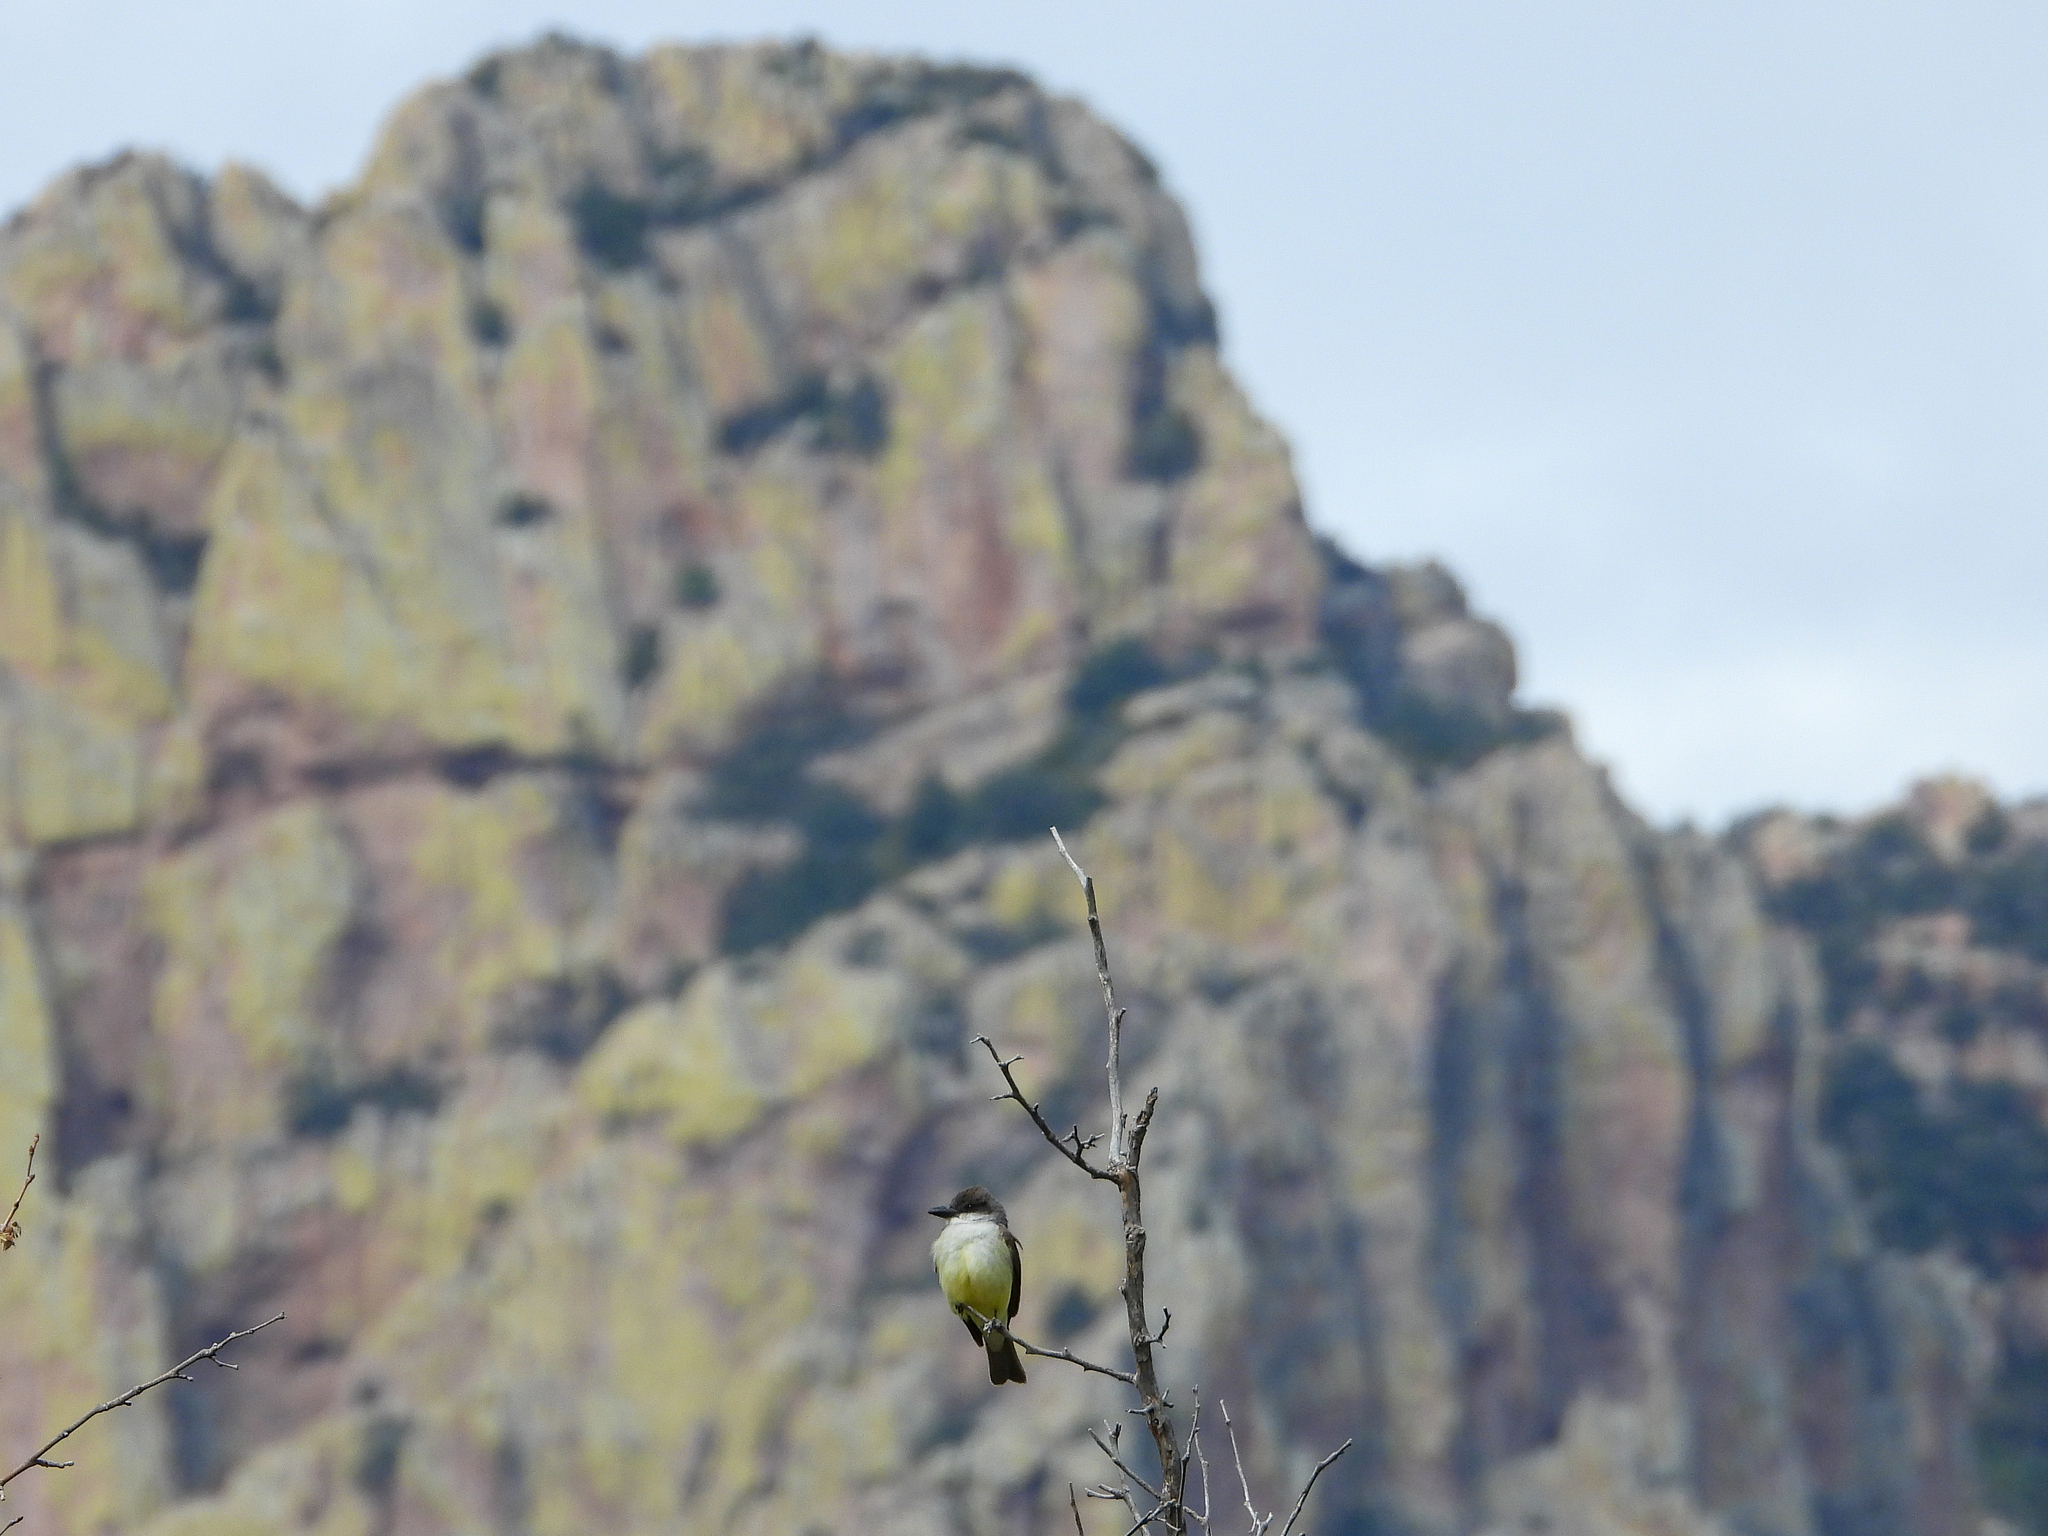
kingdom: Animalia
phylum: Chordata
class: Aves
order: Passeriformes
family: Tyrannidae
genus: Tyrannus
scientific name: Tyrannus crassirostris
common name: Thick-billed kingbird
